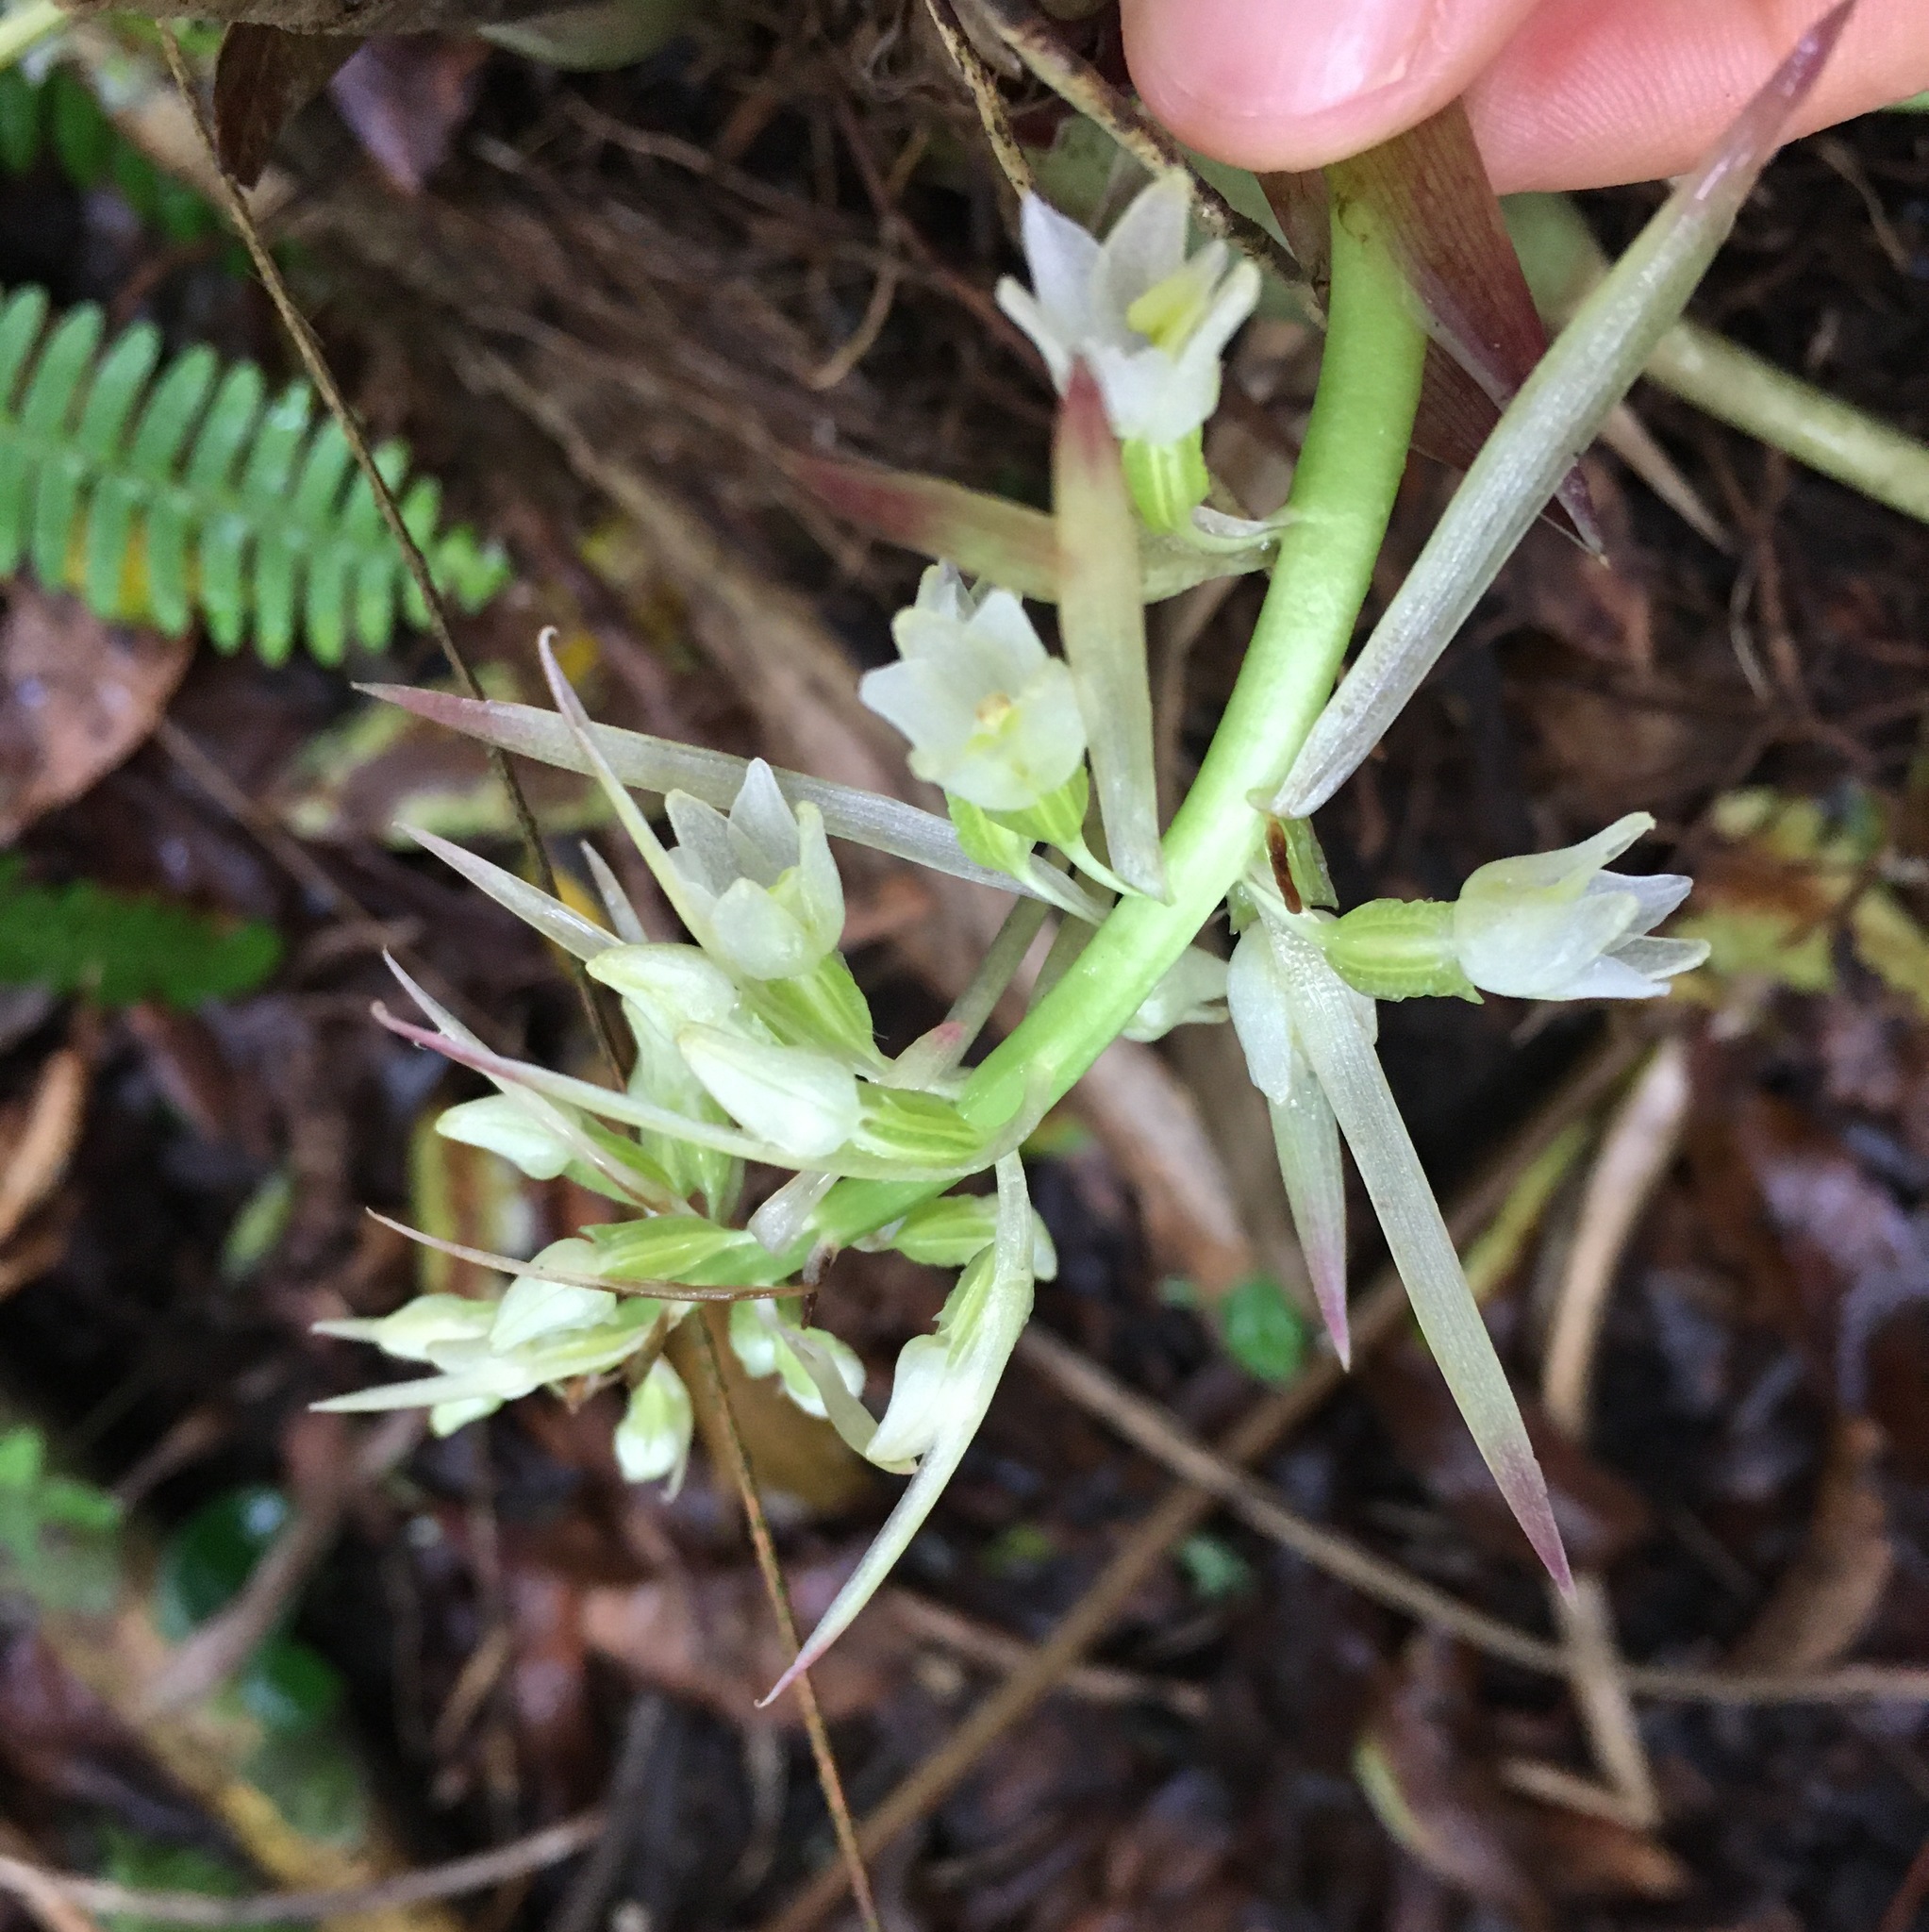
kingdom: Plantae
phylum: Tracheophyta
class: Liliopsida
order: Asparagales
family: Orchidaceae
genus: Coelia
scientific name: Coelia triptera
